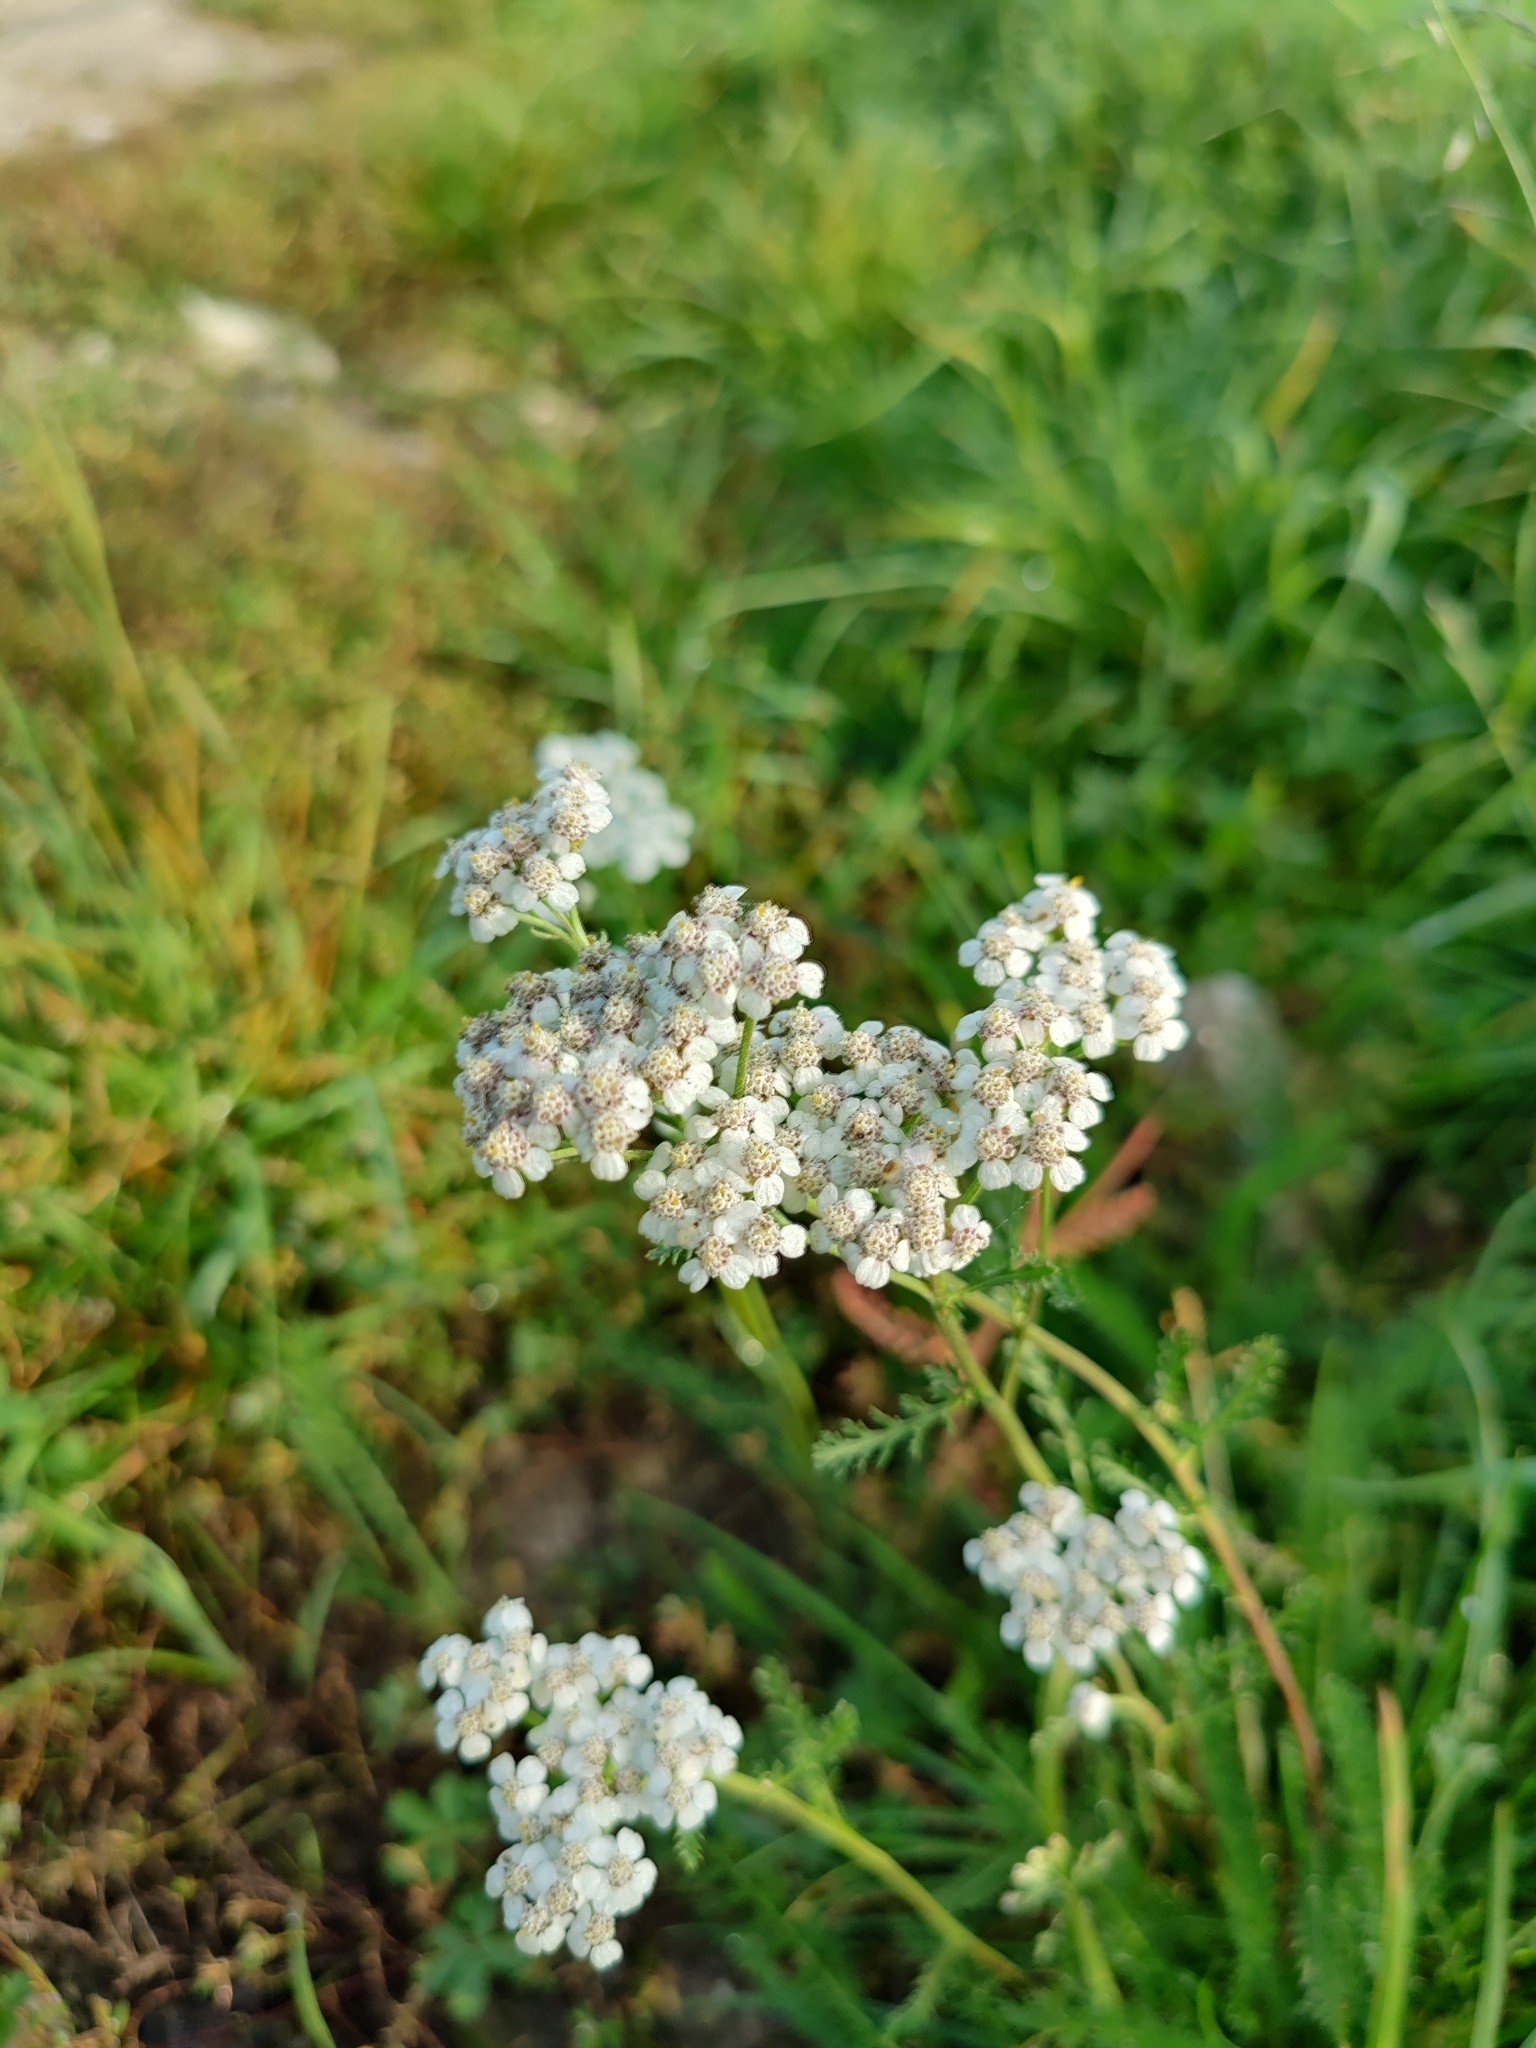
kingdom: Plantae
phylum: Tracheophyta
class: Magnoliopsida
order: Asterales
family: Asteraceae
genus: Achillea
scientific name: Achillea millefolium
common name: Yarrow
